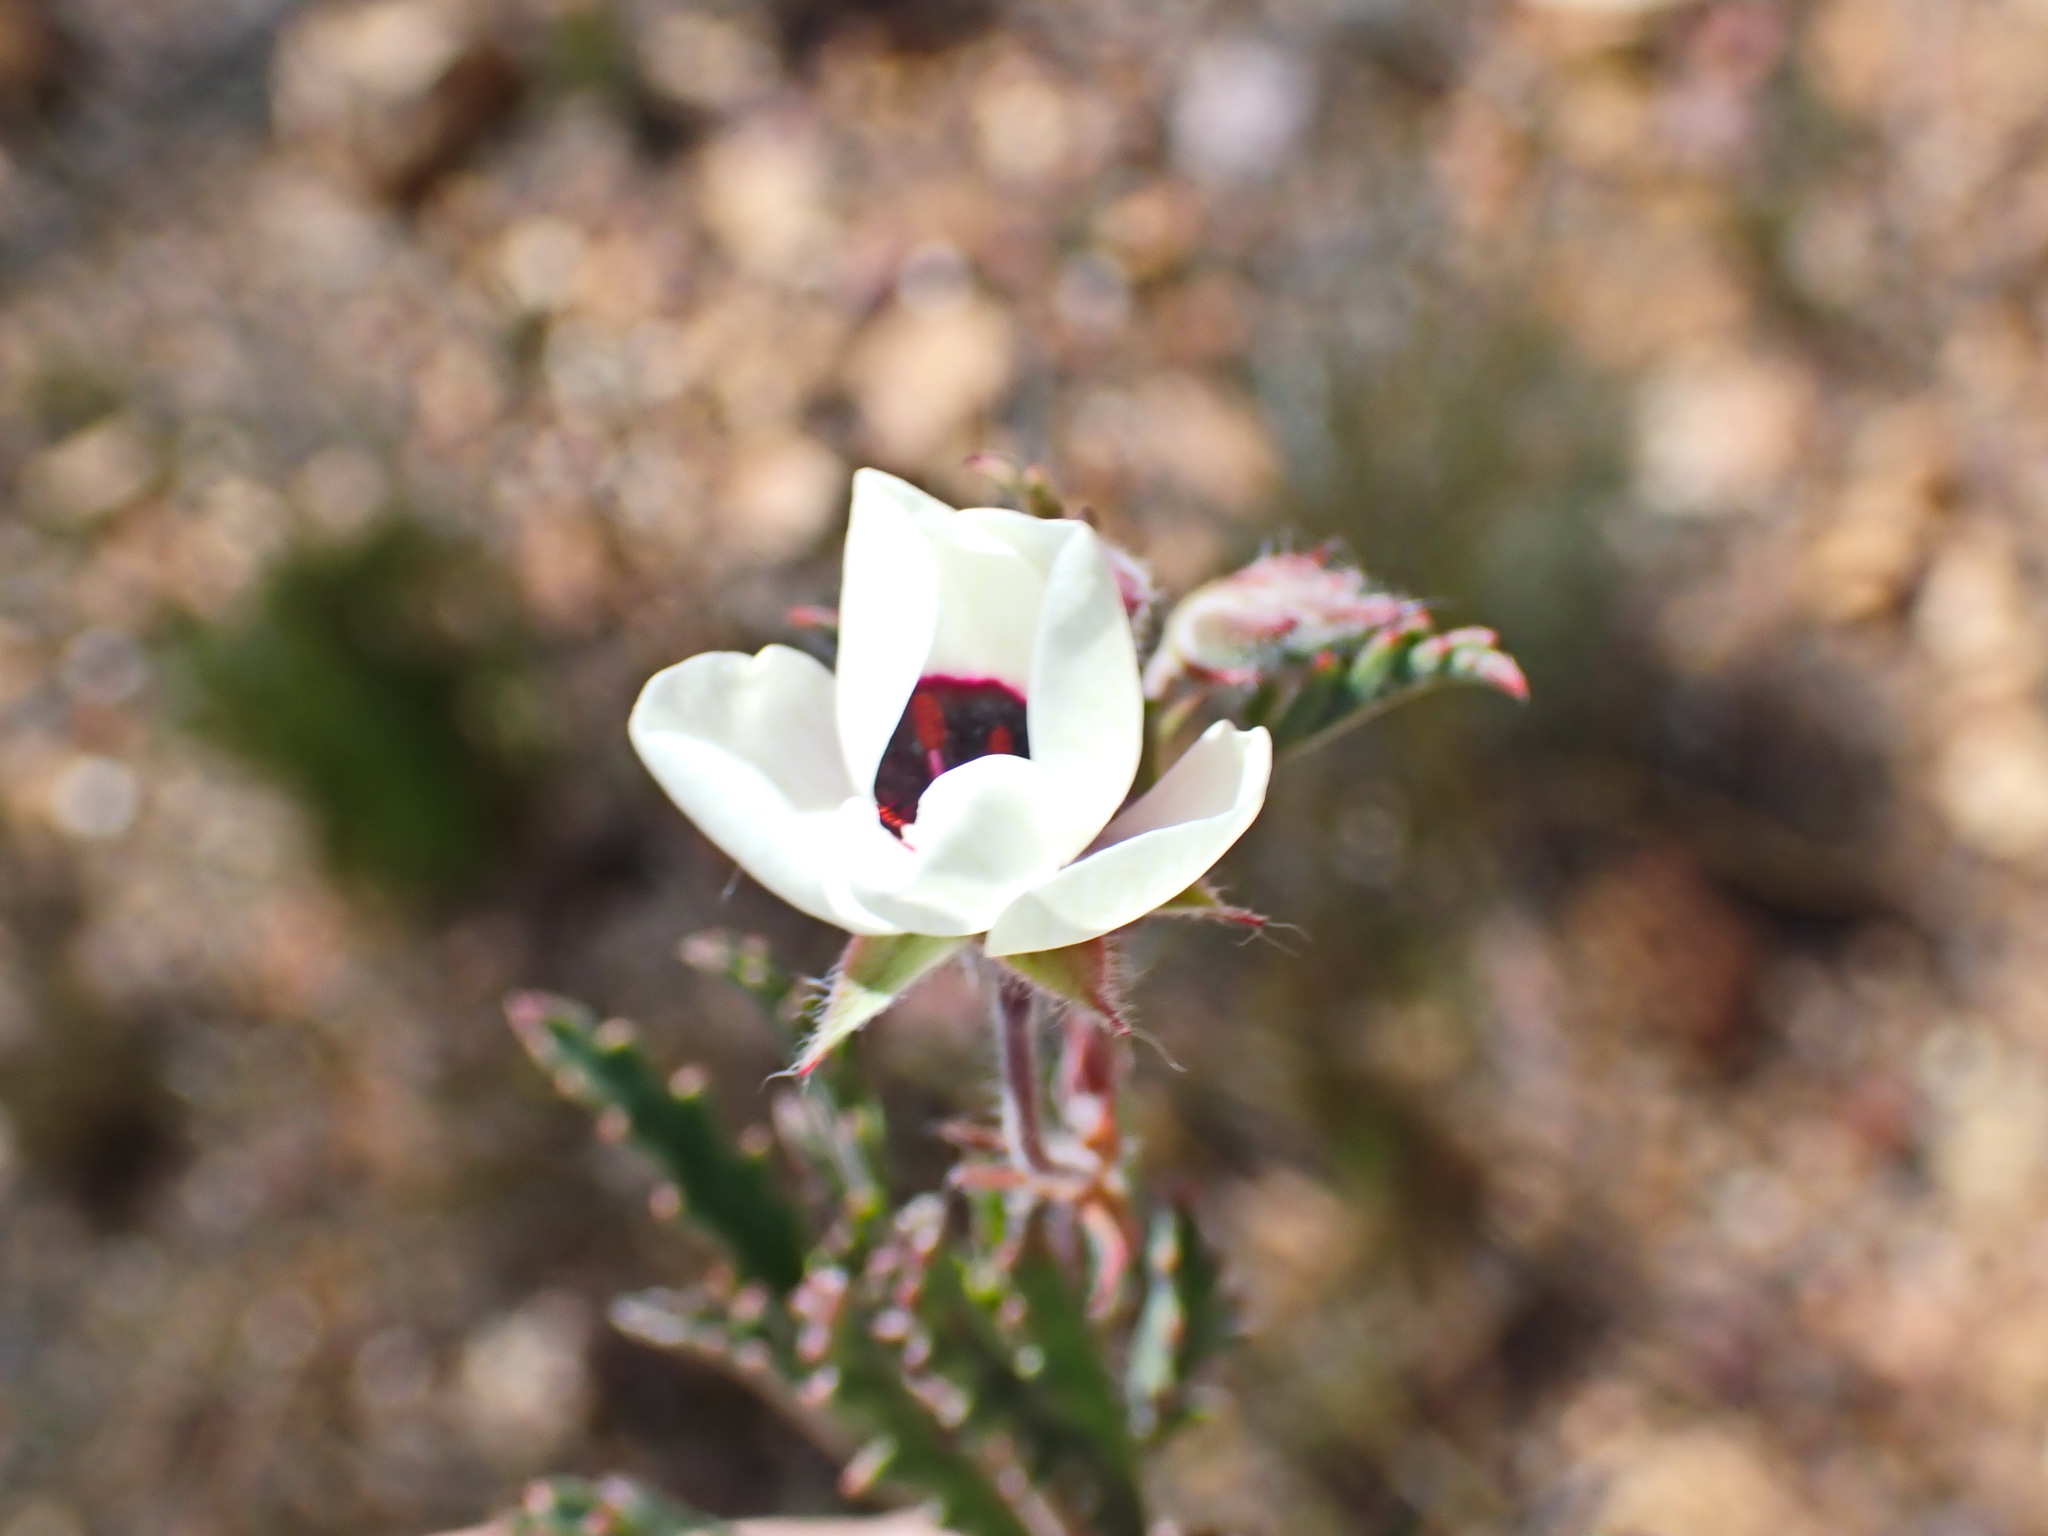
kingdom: Plantae
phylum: Tracheophyta
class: Magnoliopsida
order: Geraniales
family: Geraniaceae
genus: Pelargonium
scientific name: Pelargonium tricolor
